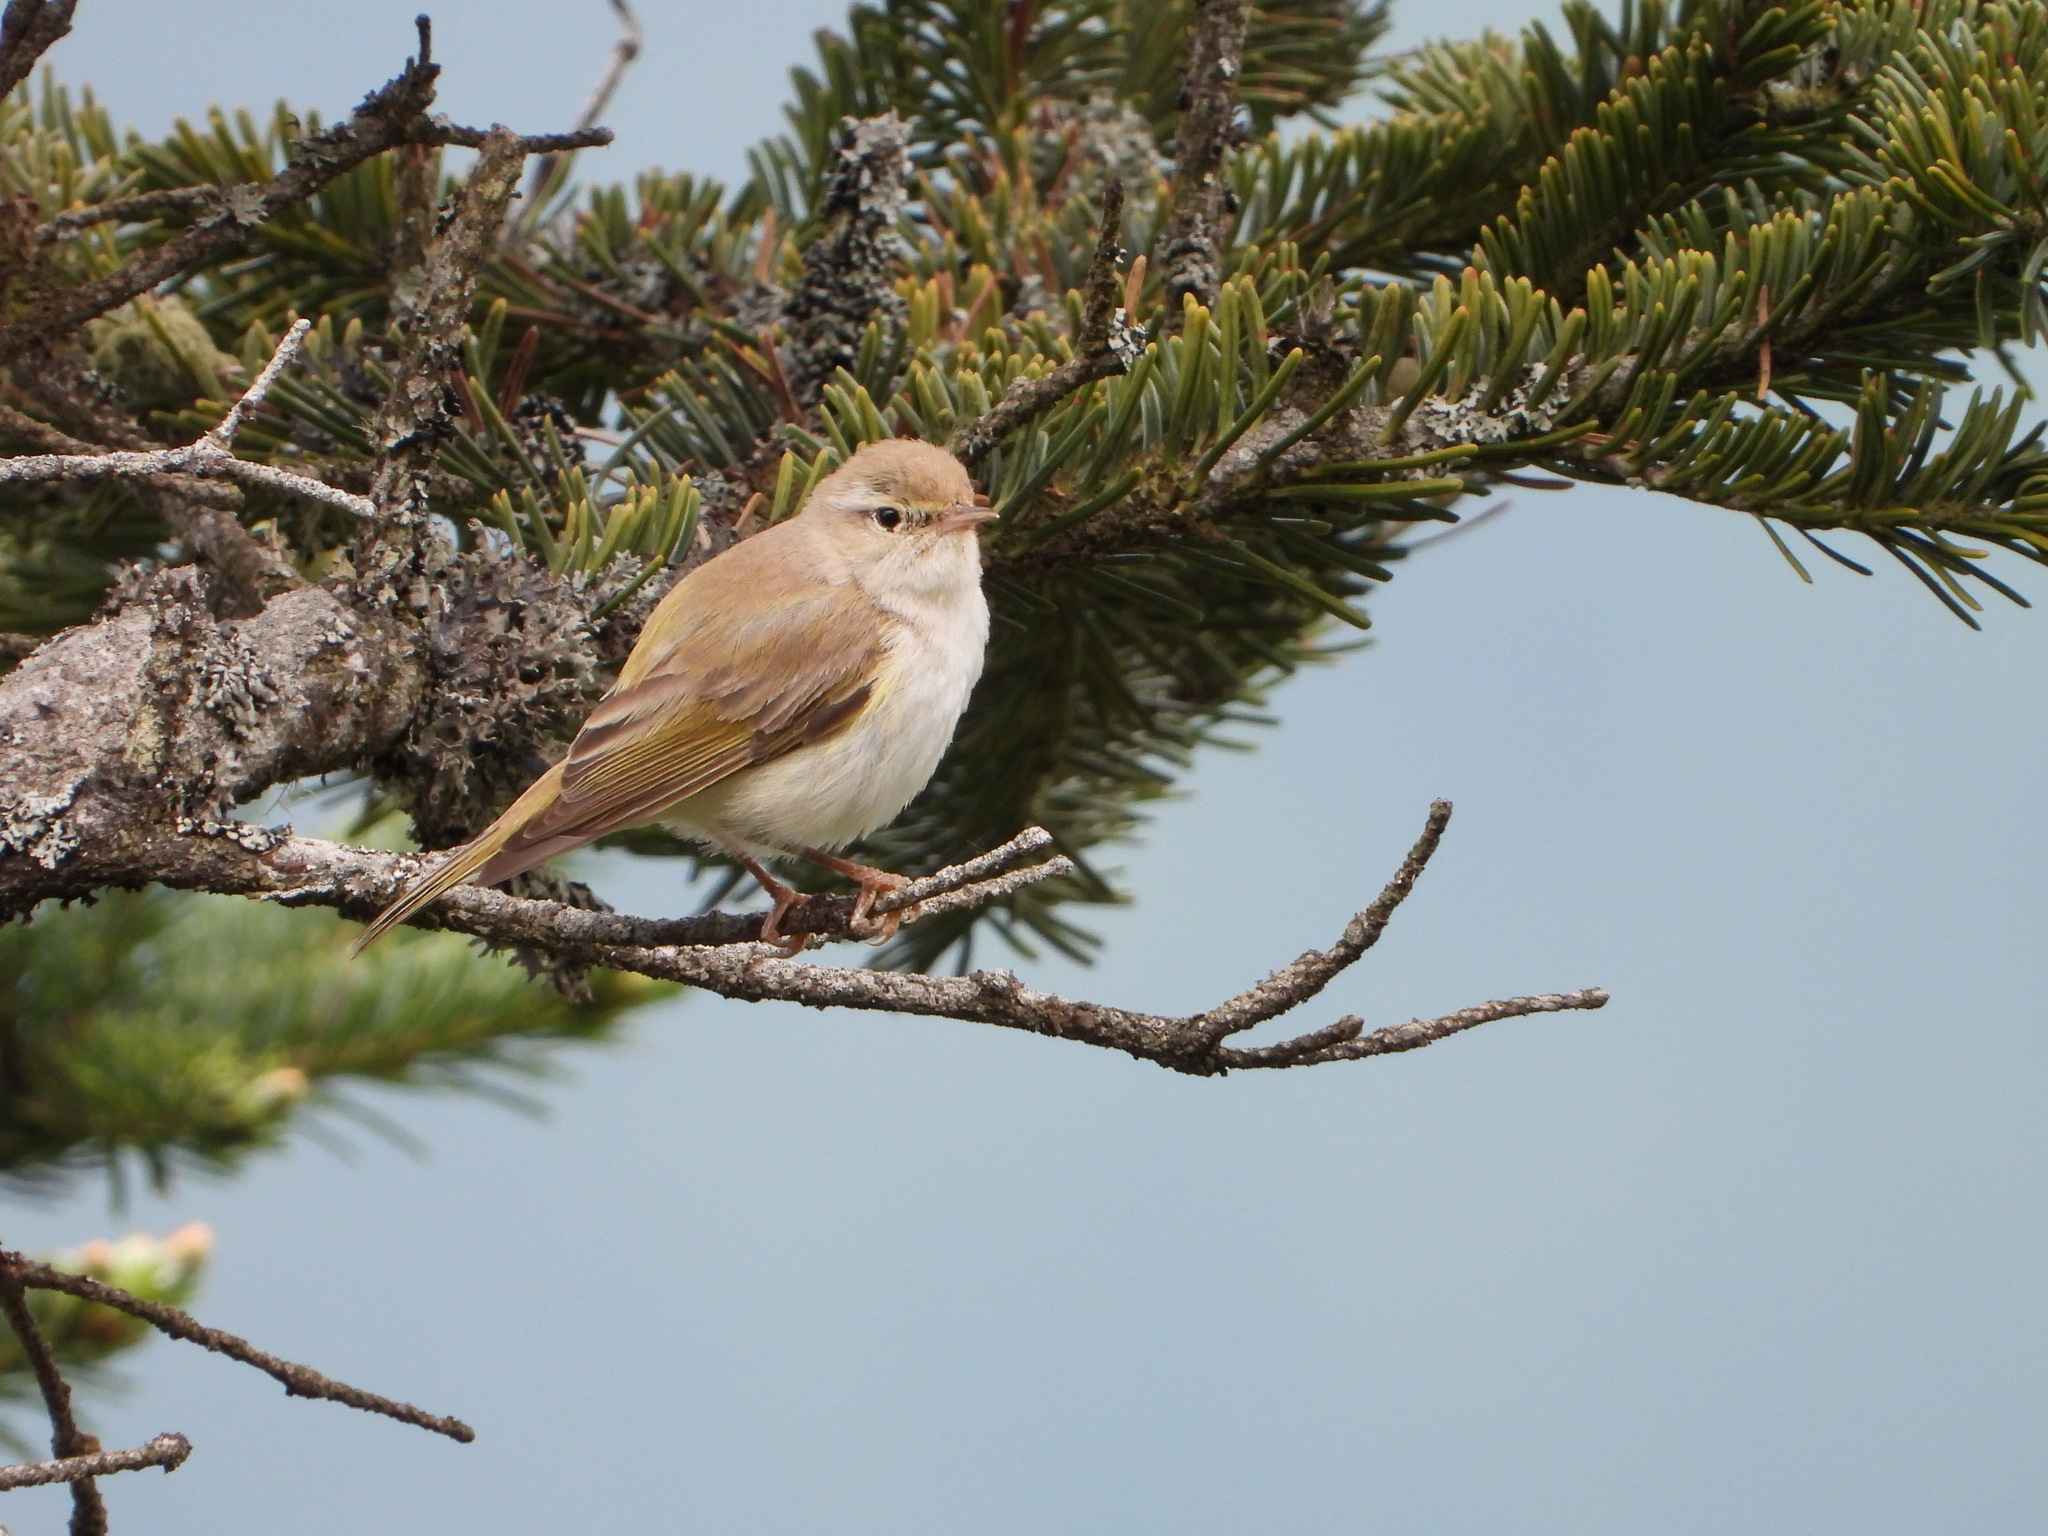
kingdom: Animalia
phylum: Chordata
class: Aves
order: Passeriformes
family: Phylloscopidae
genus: Phylloscopus
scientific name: Phylloscopus bonelli
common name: Western bonelli's warbler
